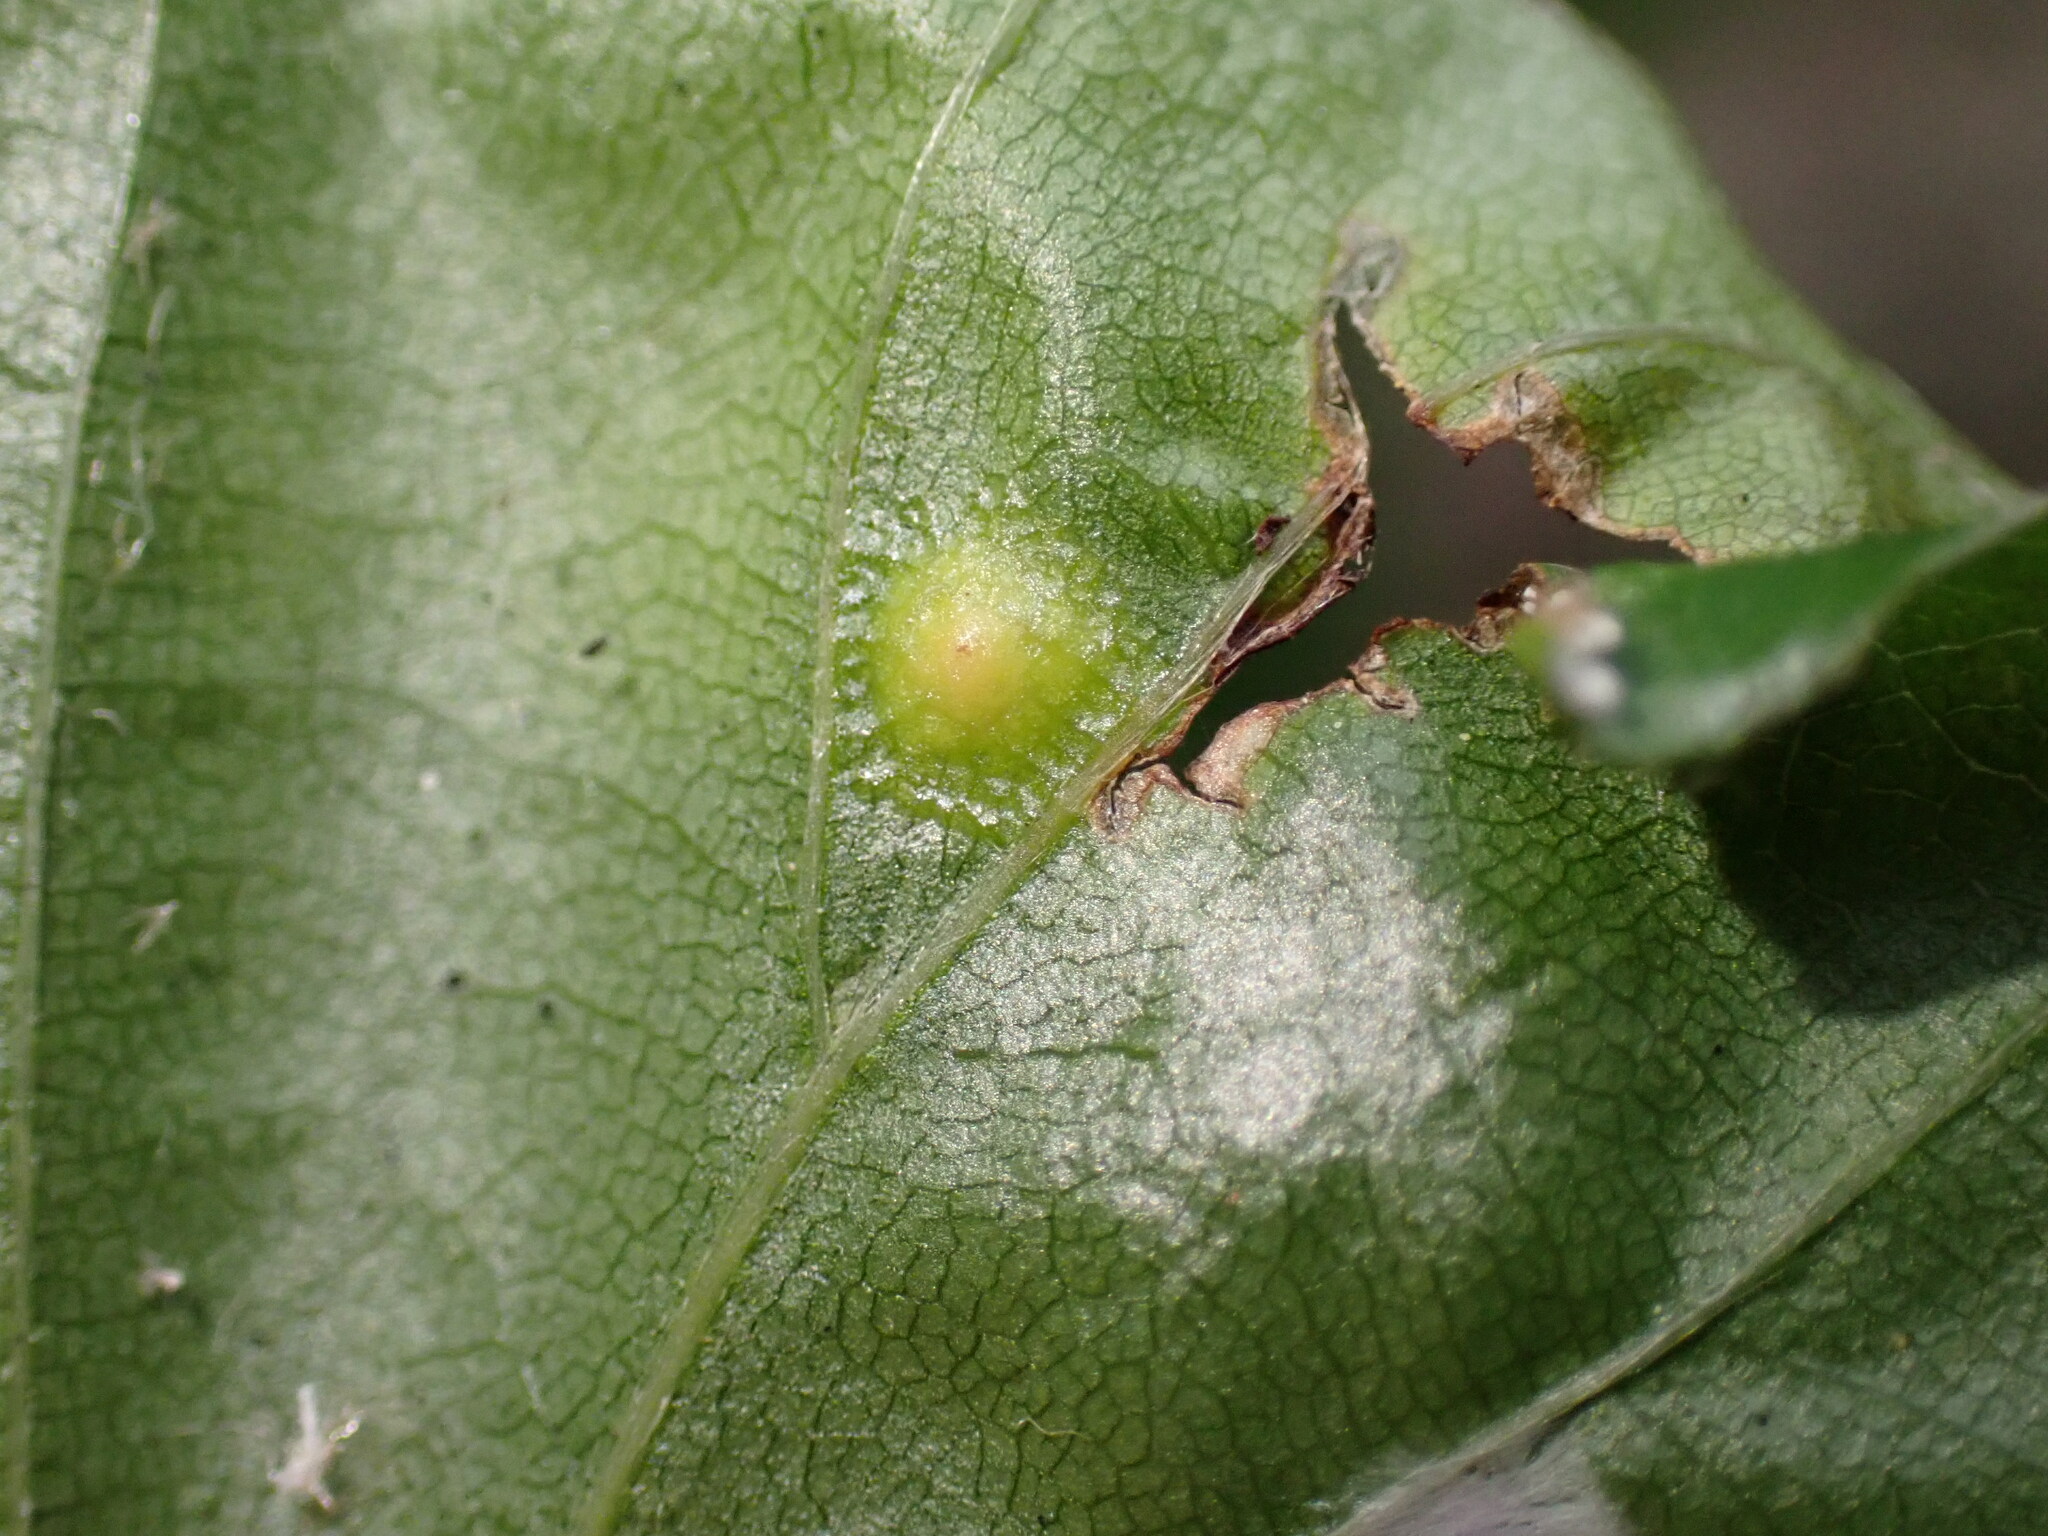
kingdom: Animalia
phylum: Arthropoda
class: Insecta
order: Diptera
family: Cecidomyiidae
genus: Hartigiola
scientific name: Hartigiola annulipes
